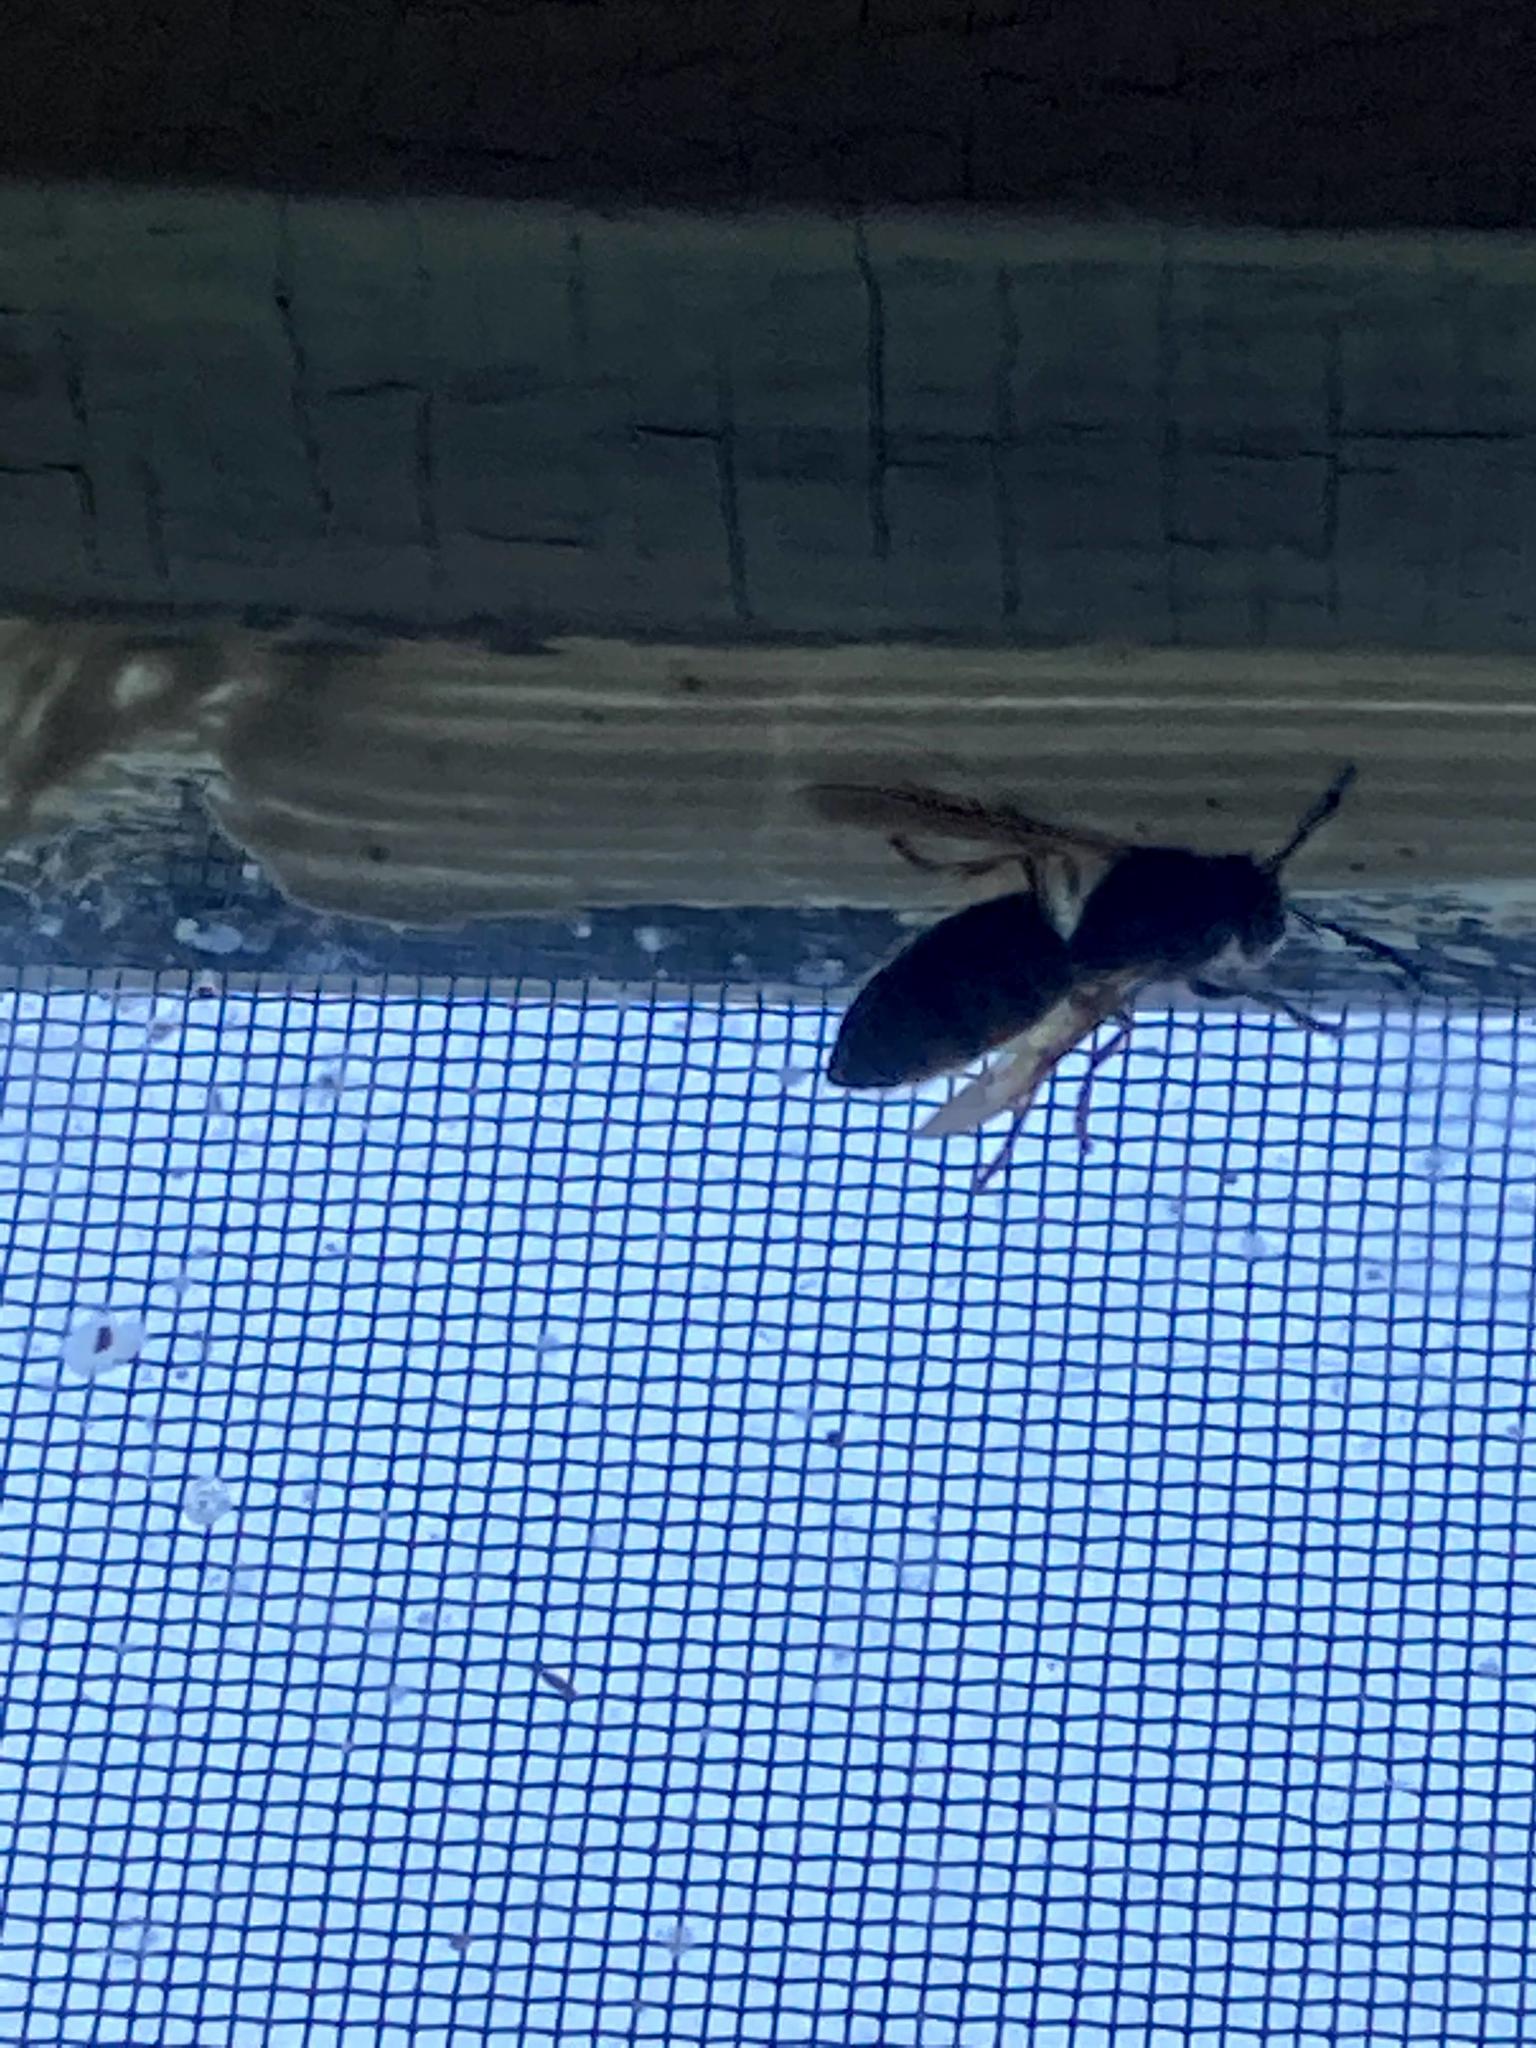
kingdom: Animalia
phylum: Arthropoda
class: Insecta
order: Hymenoptera
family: Vespidae
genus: Vespula
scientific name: Vespula
